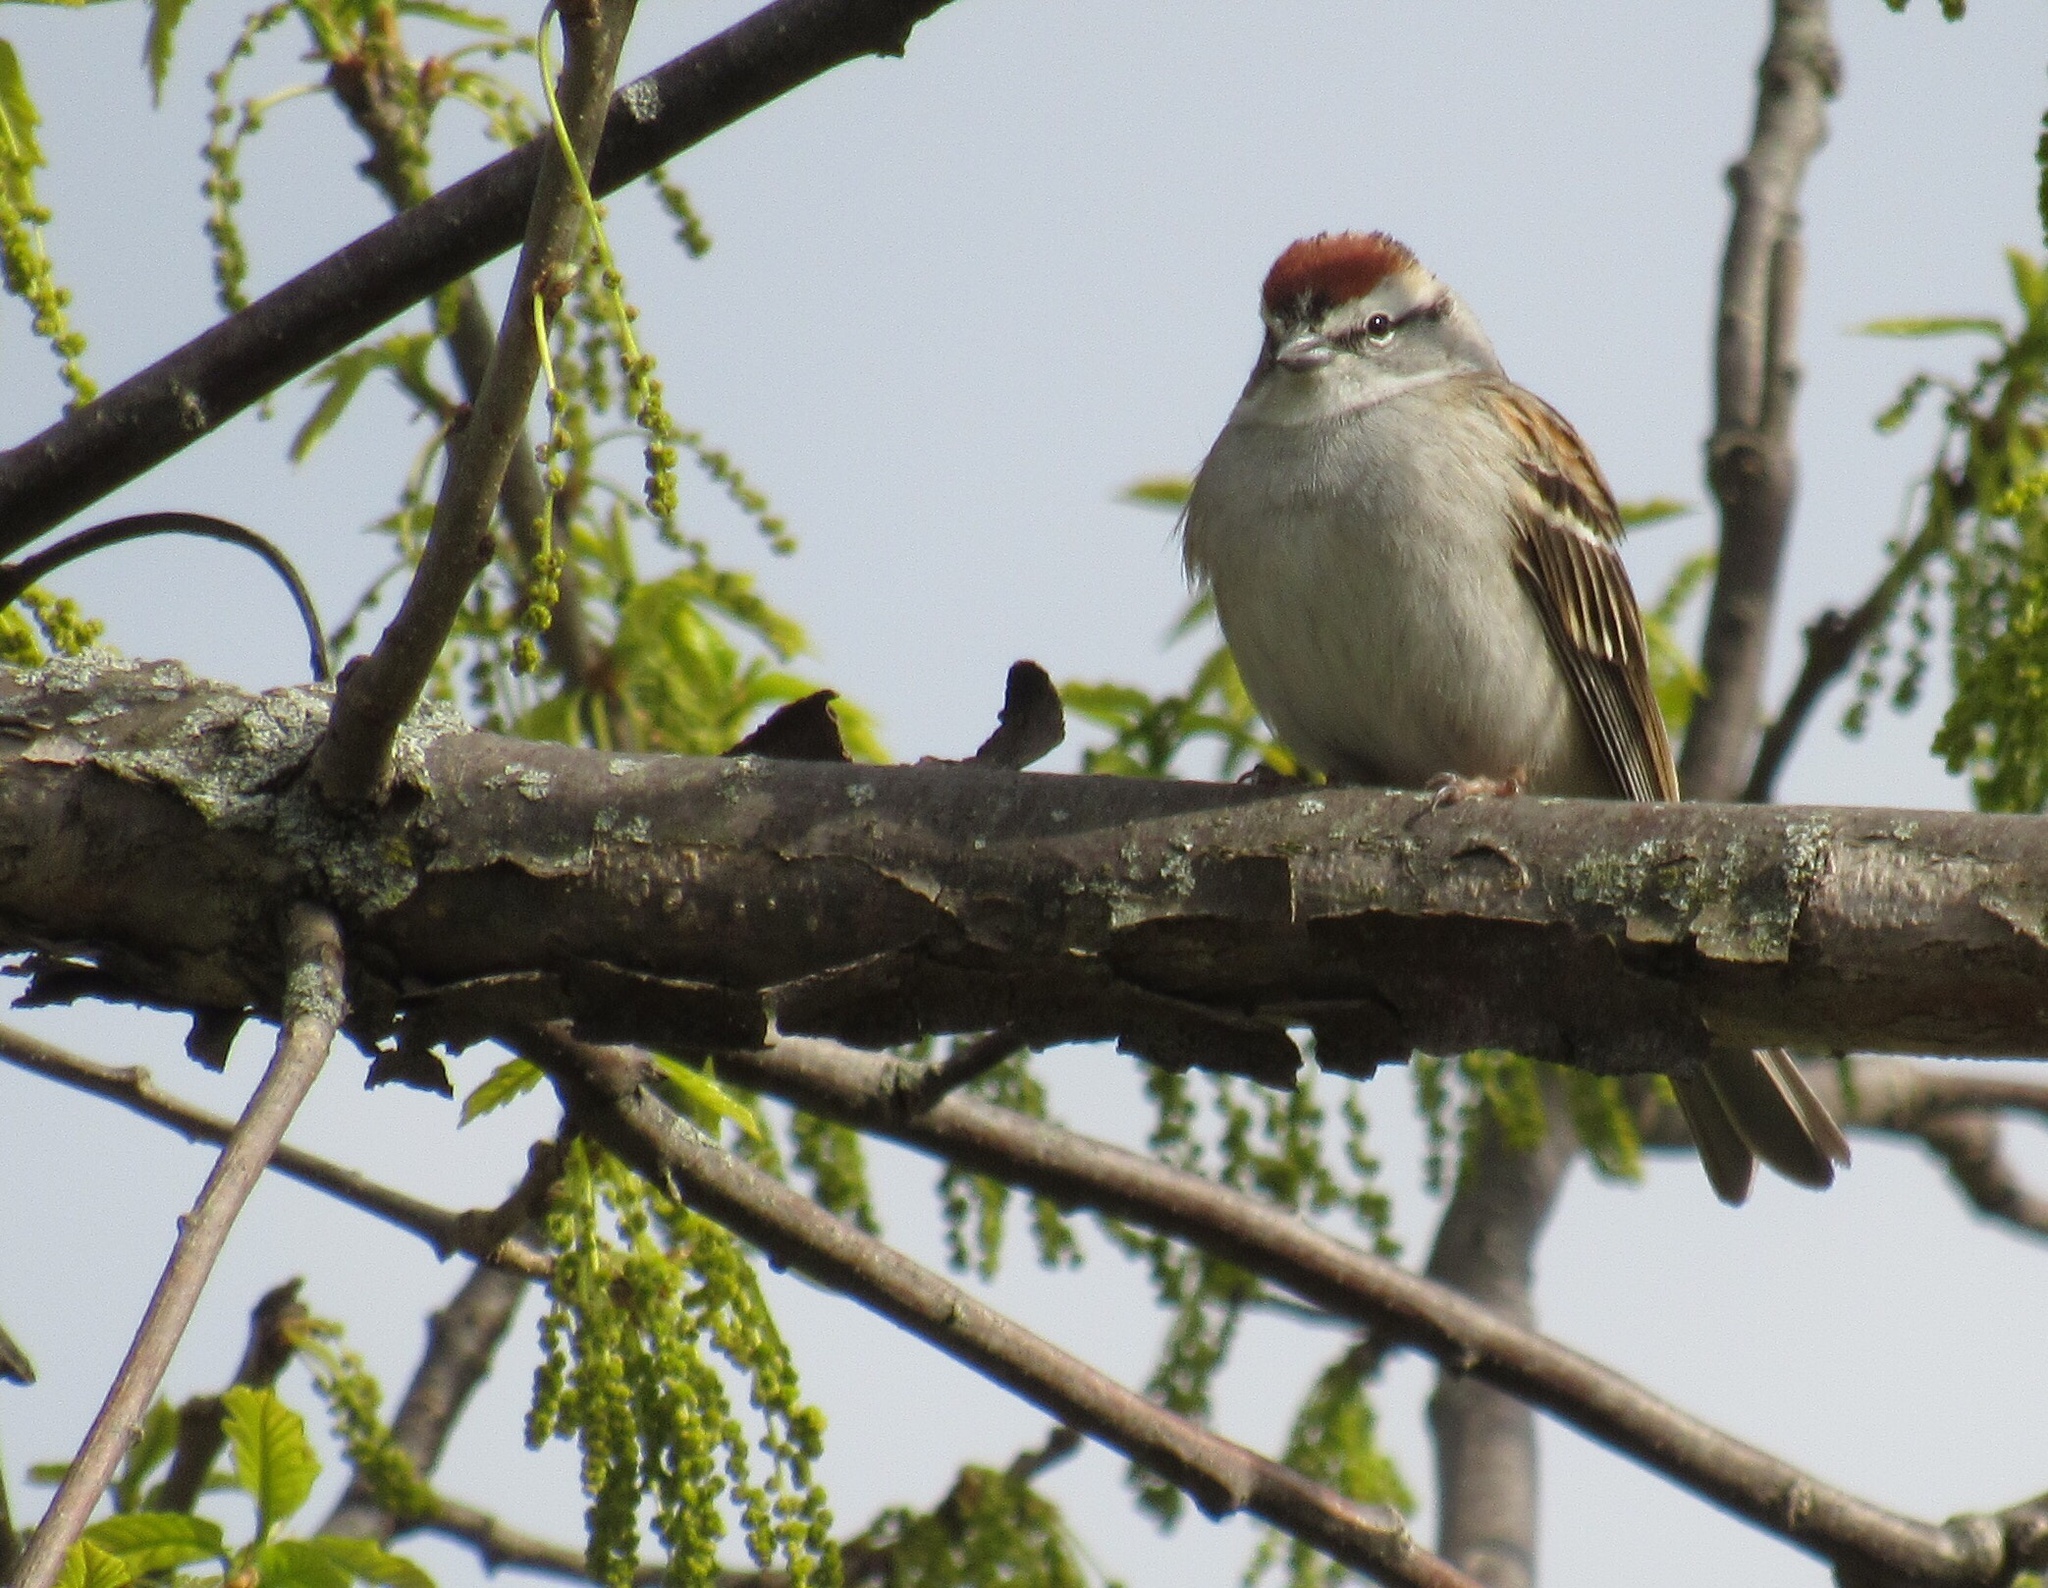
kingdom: Animalia
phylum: Chordata
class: Aves
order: Passeriformes
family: Passerellidae
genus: Spizella
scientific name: Spizella passerina
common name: Chipping sparrow
